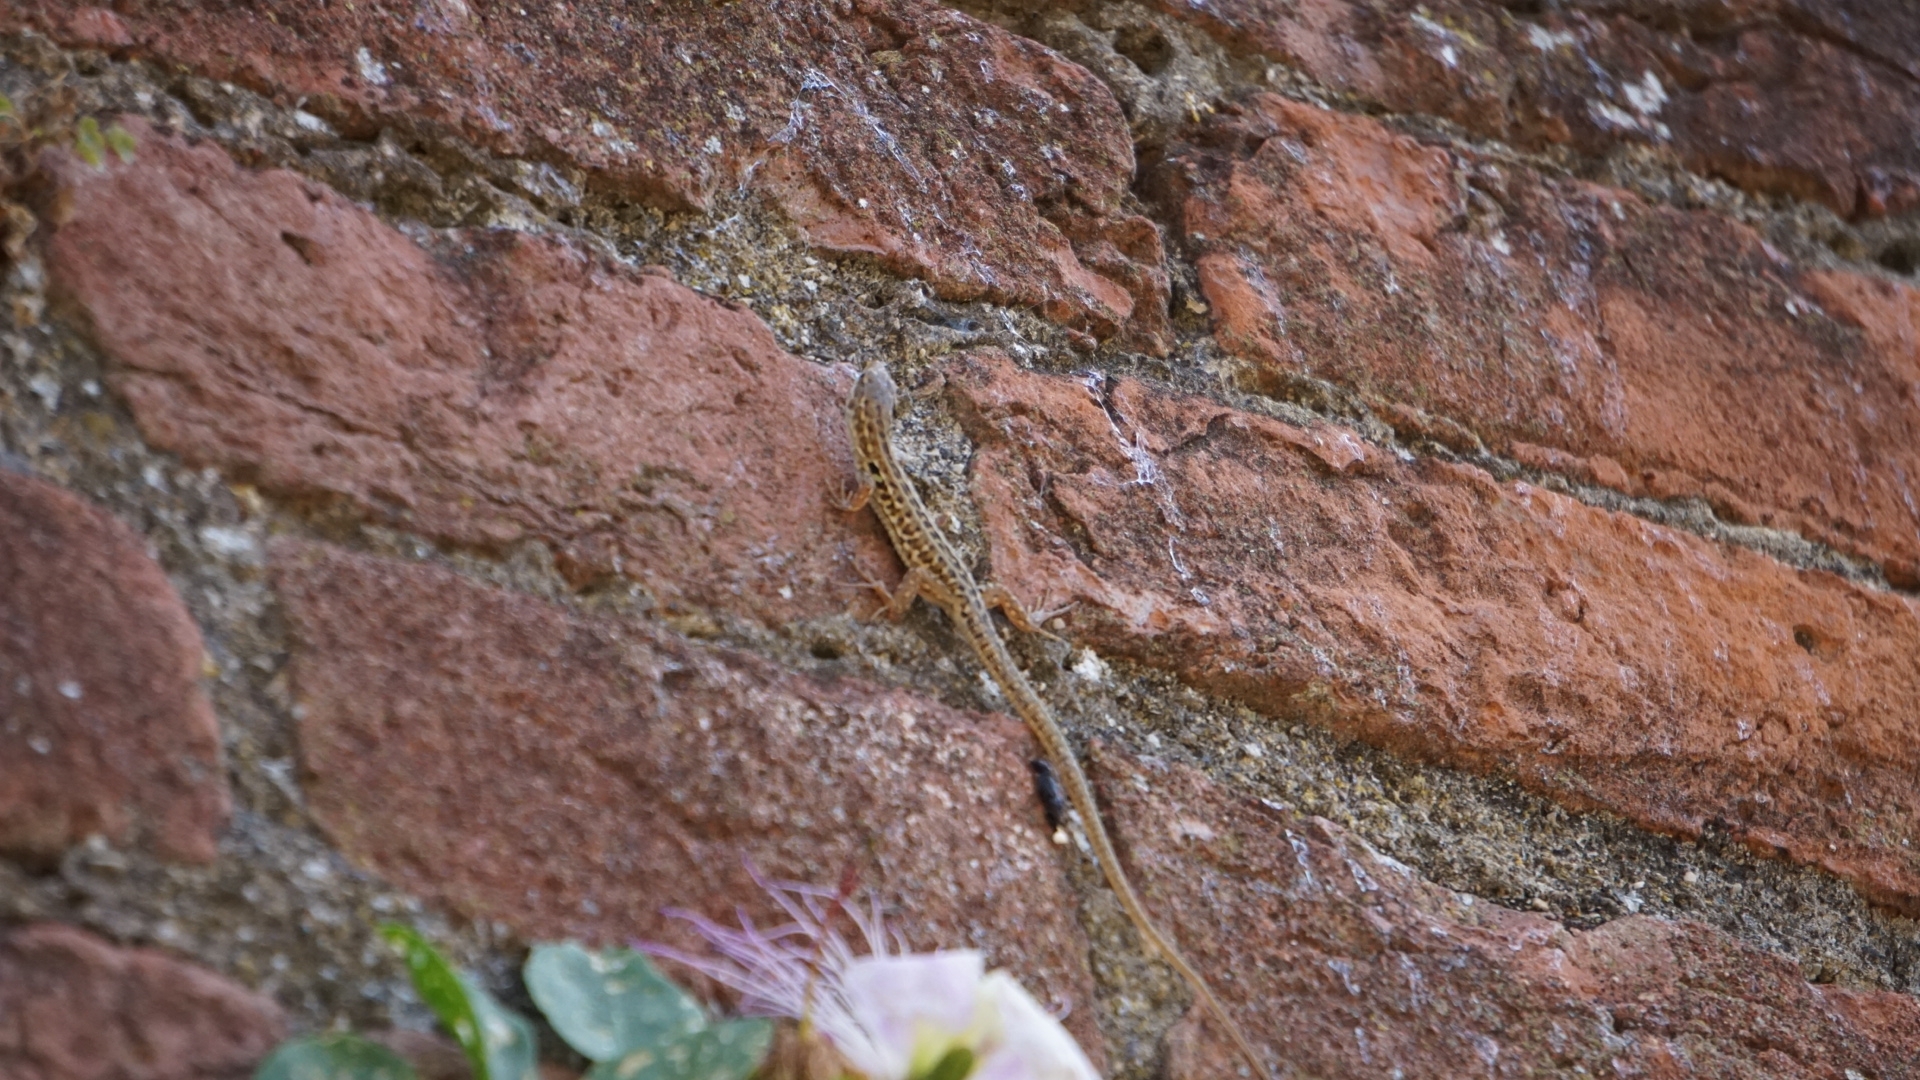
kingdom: Animalia
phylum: Chordata
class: Squamata
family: Lacertidae
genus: Podarcis
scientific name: Podarcis siculus
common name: Italian wall lizard
